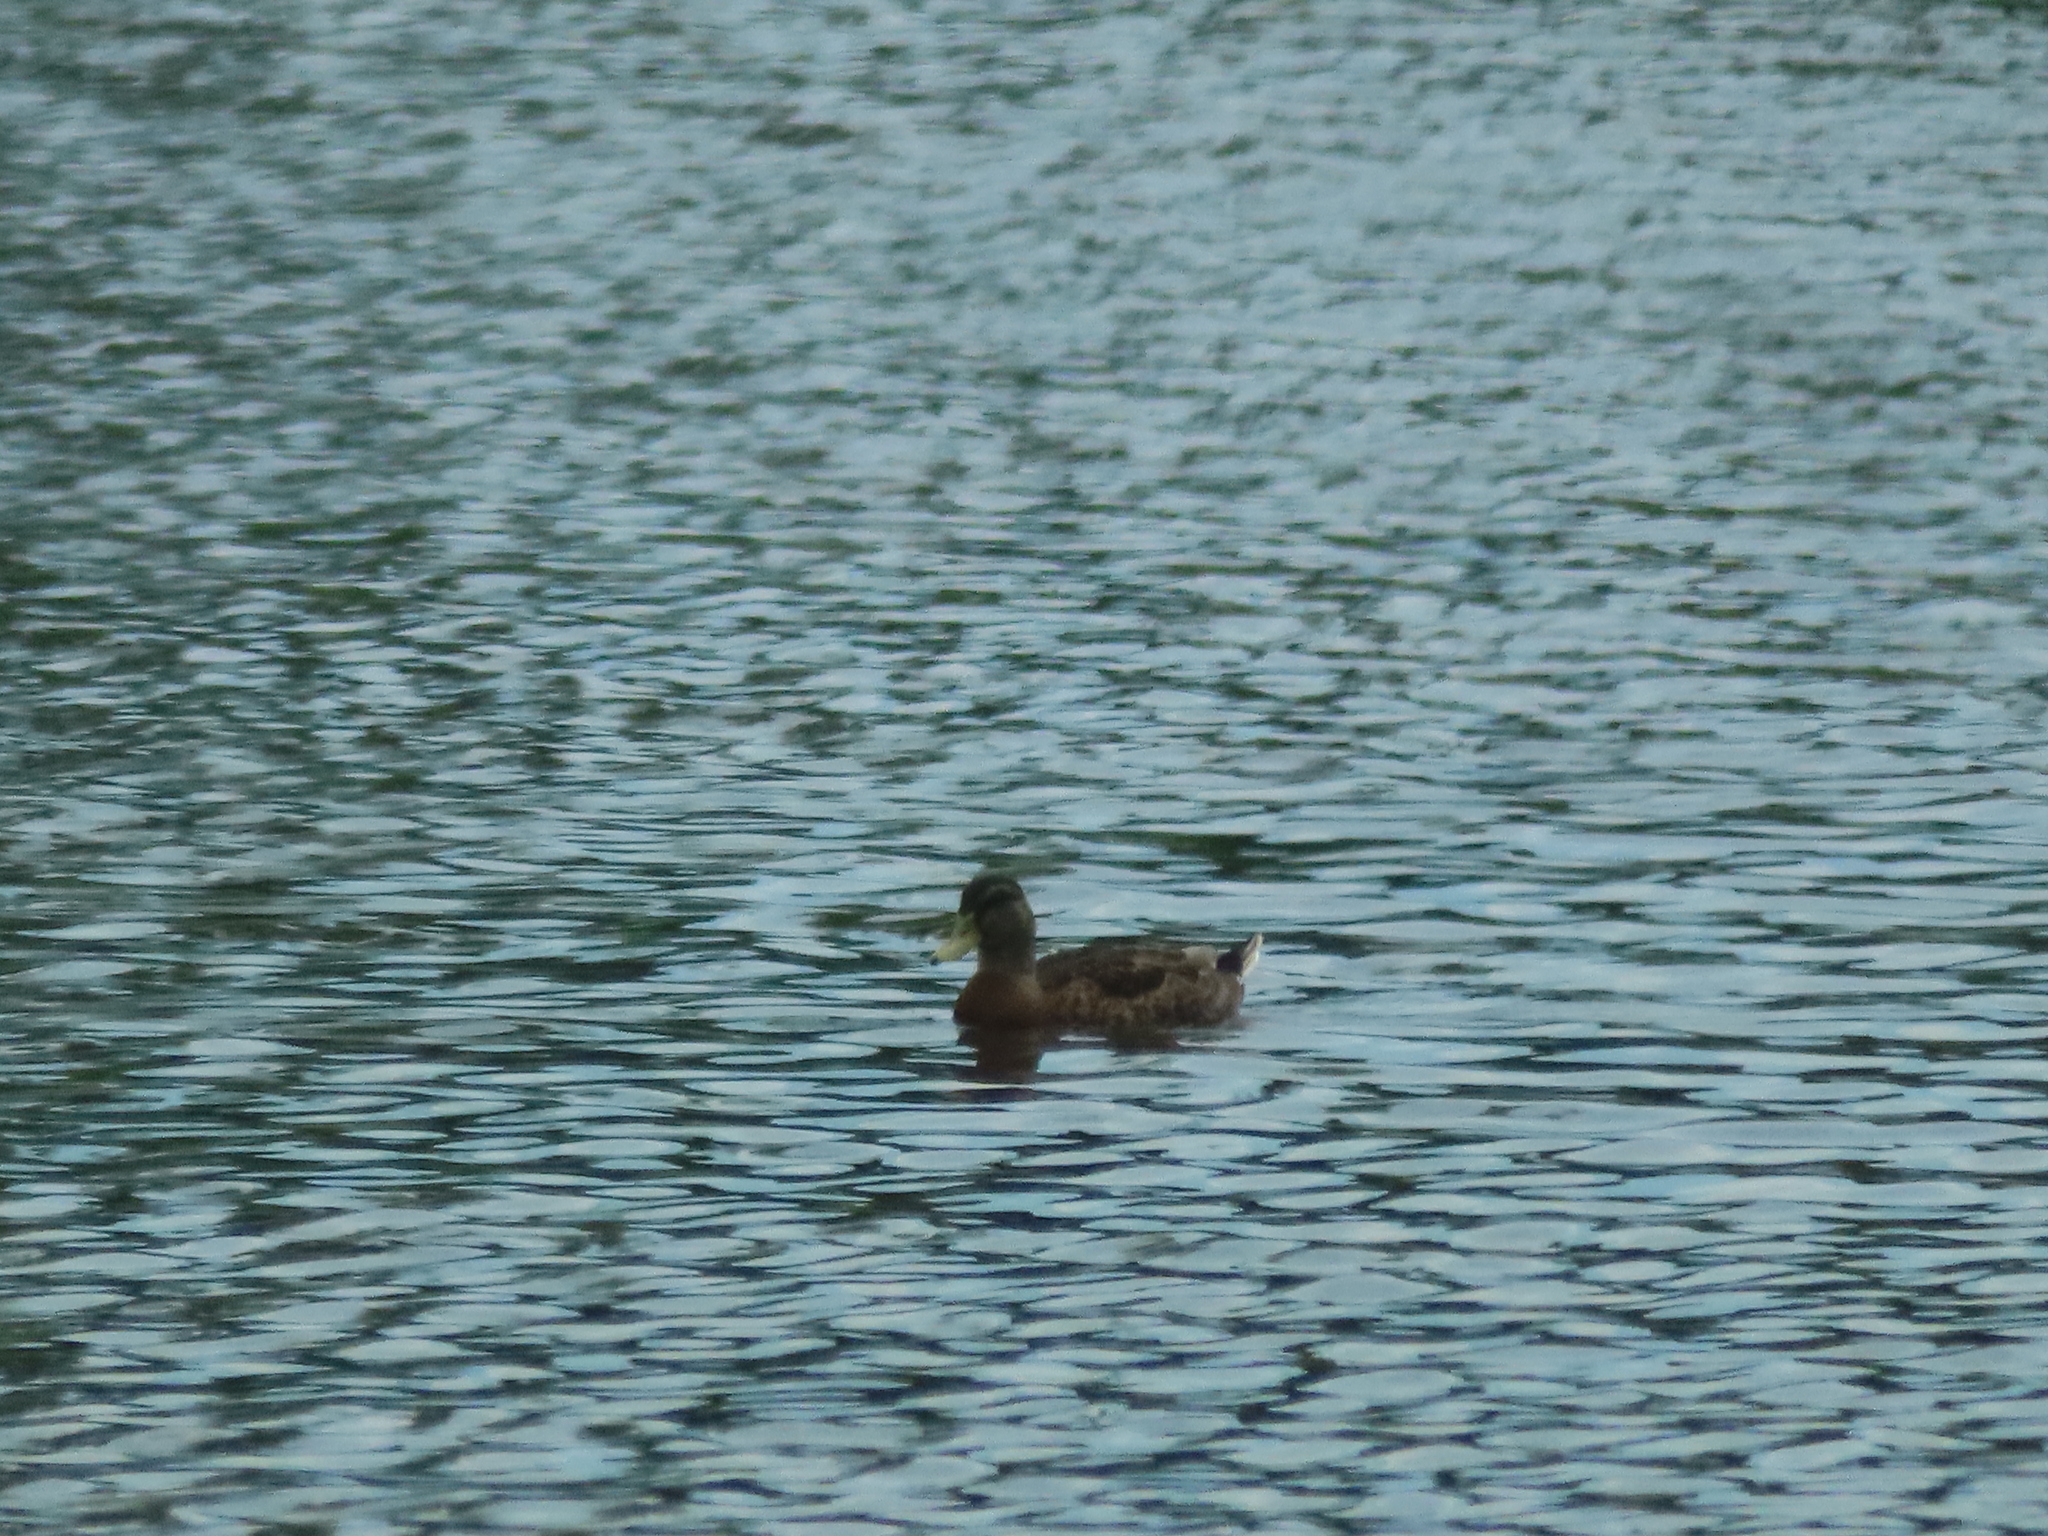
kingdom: Animalia
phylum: Chordata
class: Aves
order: Anseriformes
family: Anatidae
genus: Anas
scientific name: Anas platyrhynchos
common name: Mallard
